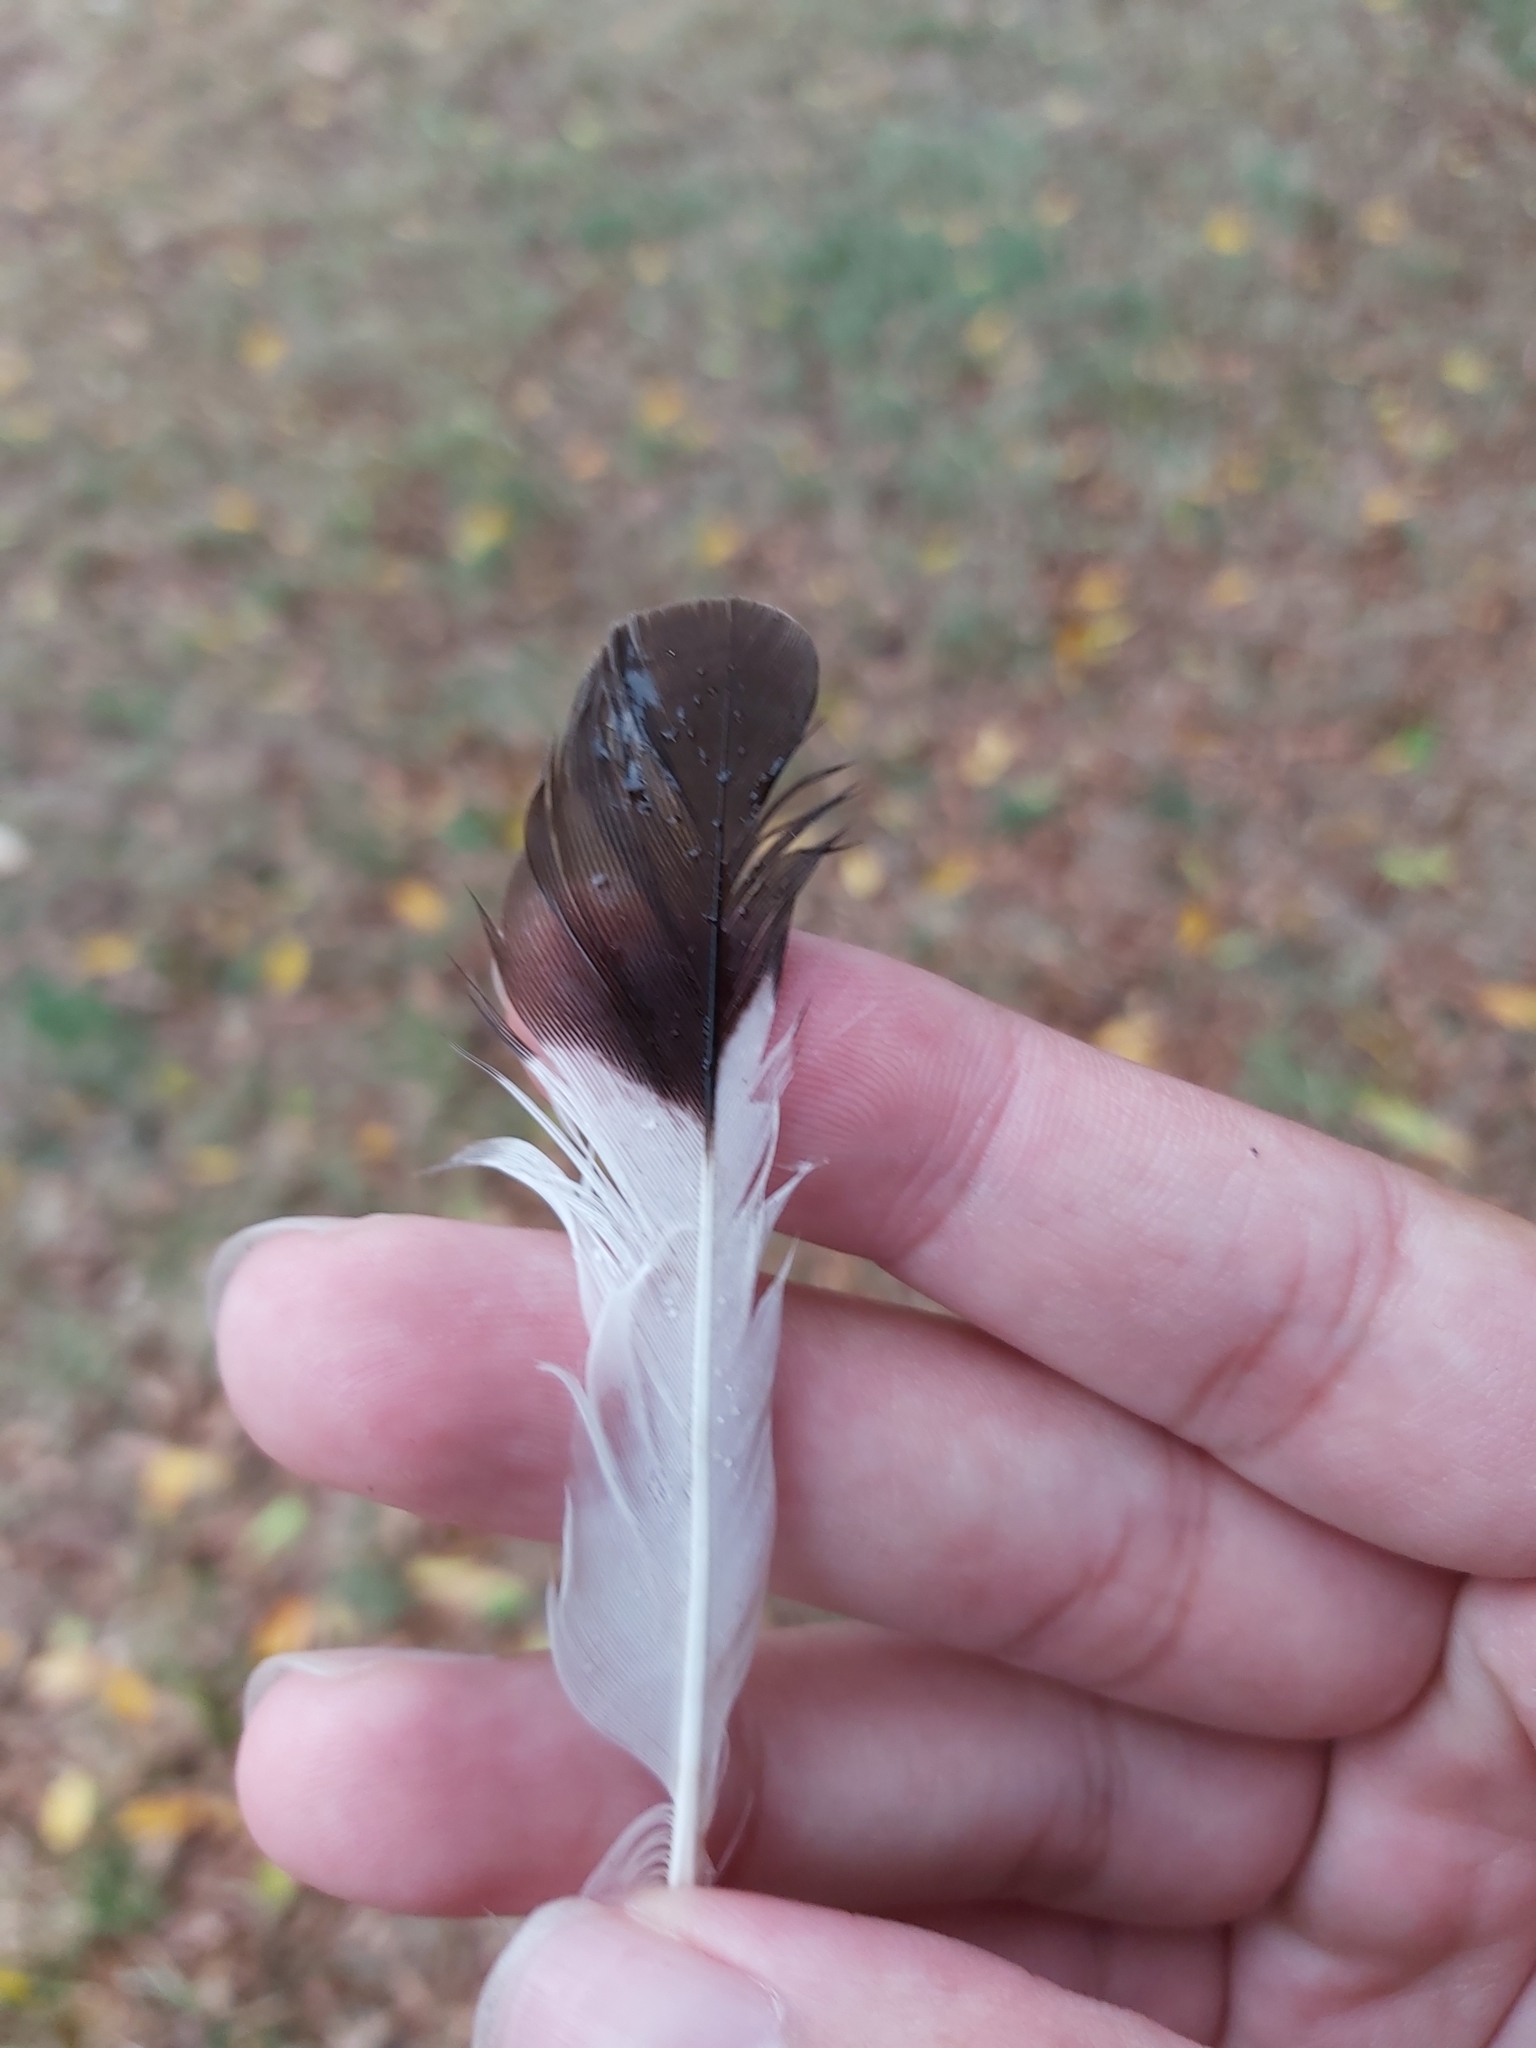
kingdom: Animalia
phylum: Chordata
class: Aves
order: Passeriformes
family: Sturnidae
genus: Acridotheres
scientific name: Acridotheres tristis
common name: Common myna
